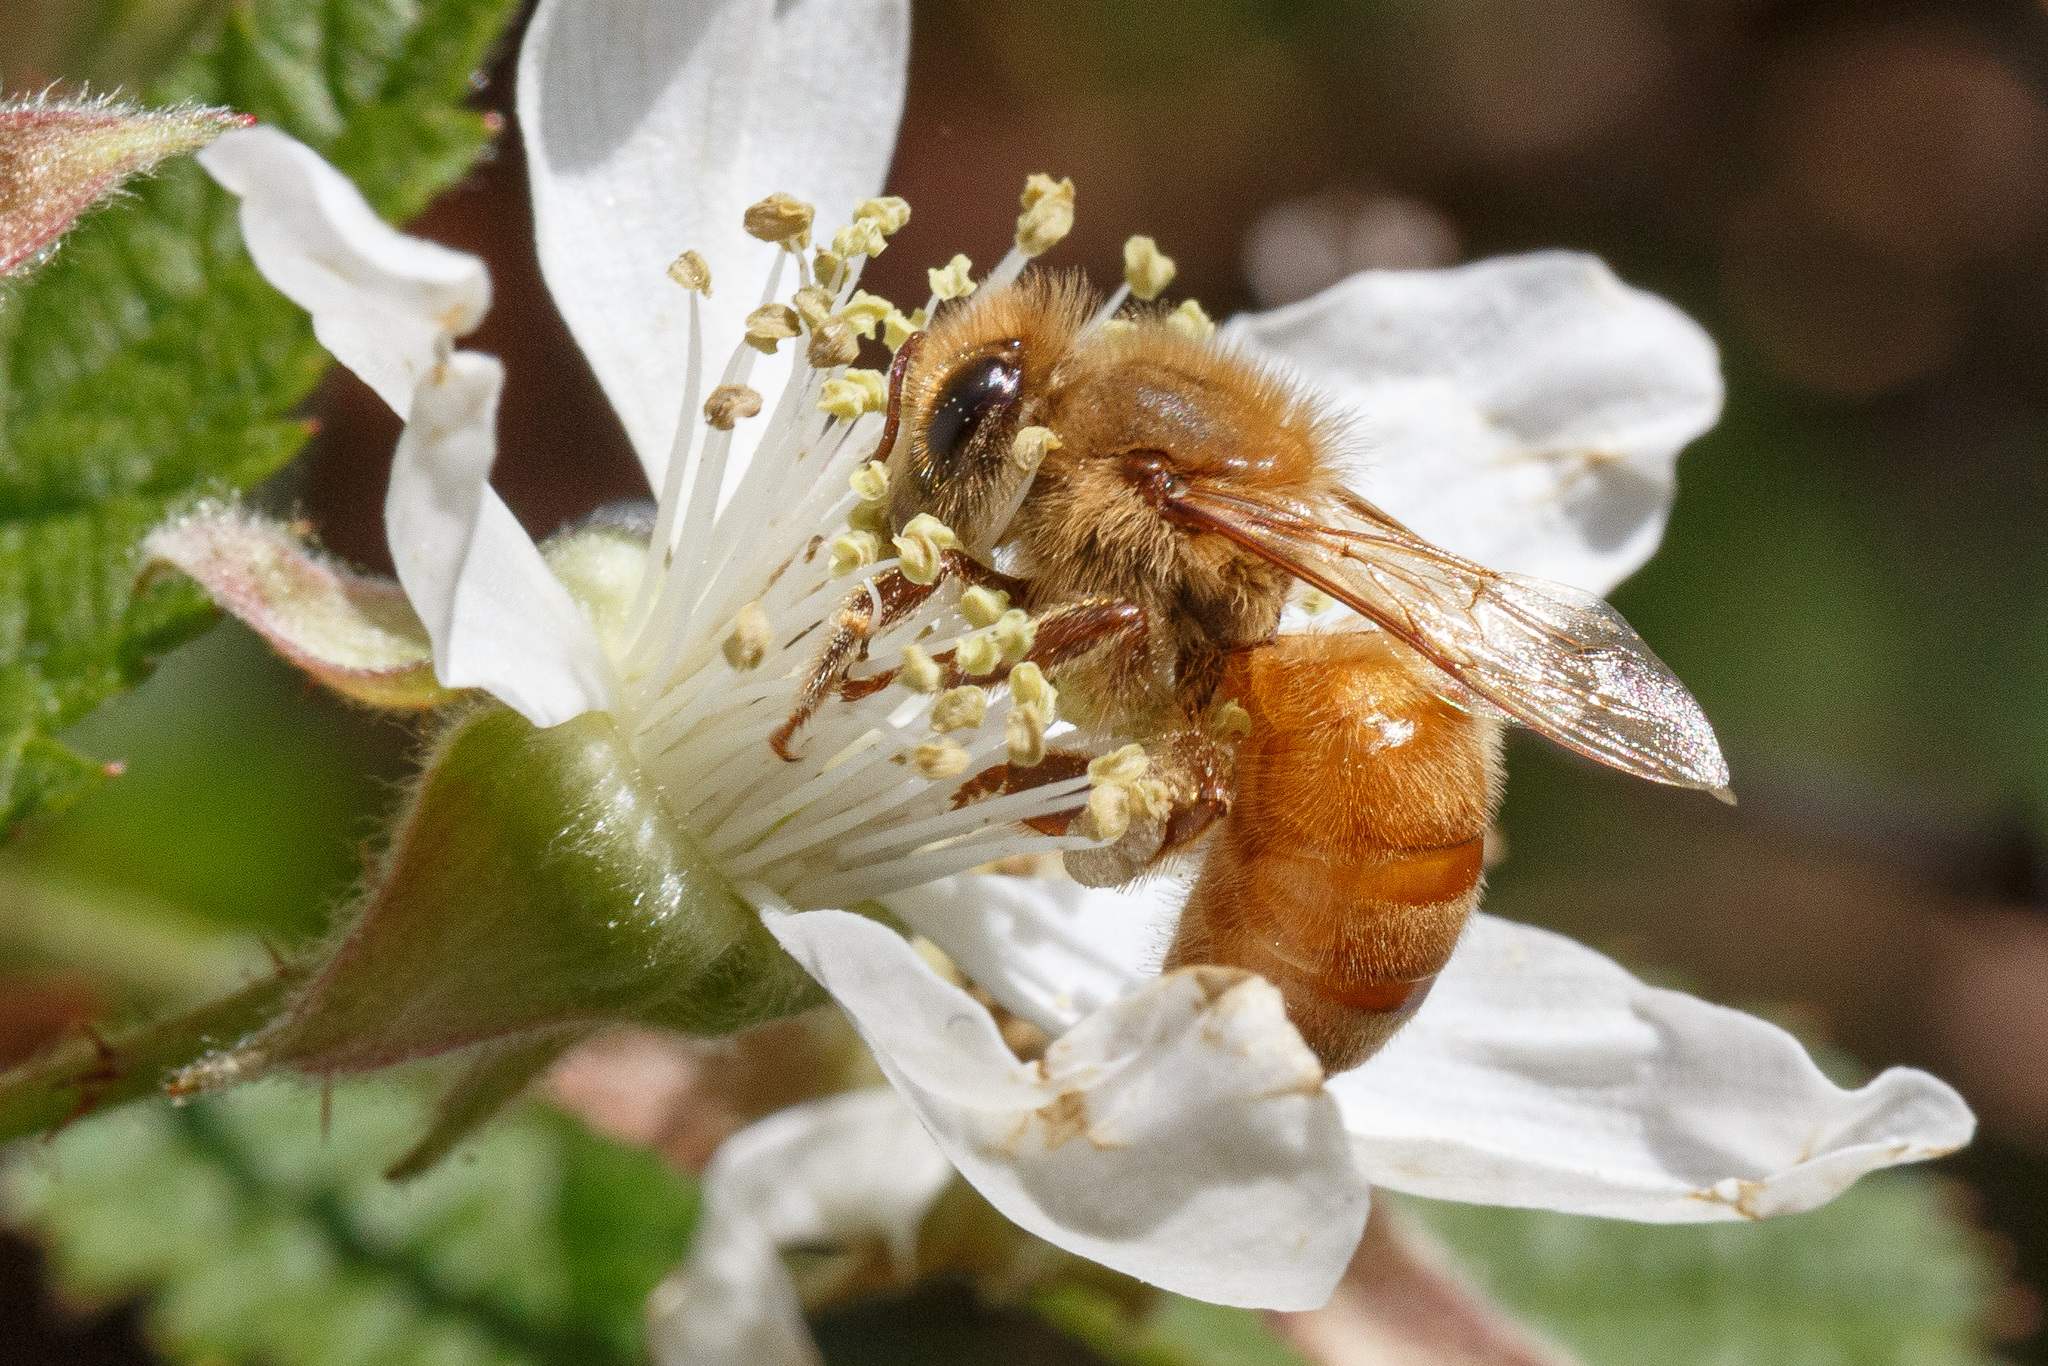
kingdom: Animalia
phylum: Arthropoda
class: Insecta
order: Hymenoptera
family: Apidae
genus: Apis
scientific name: Apis mellifera
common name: Honey bee
